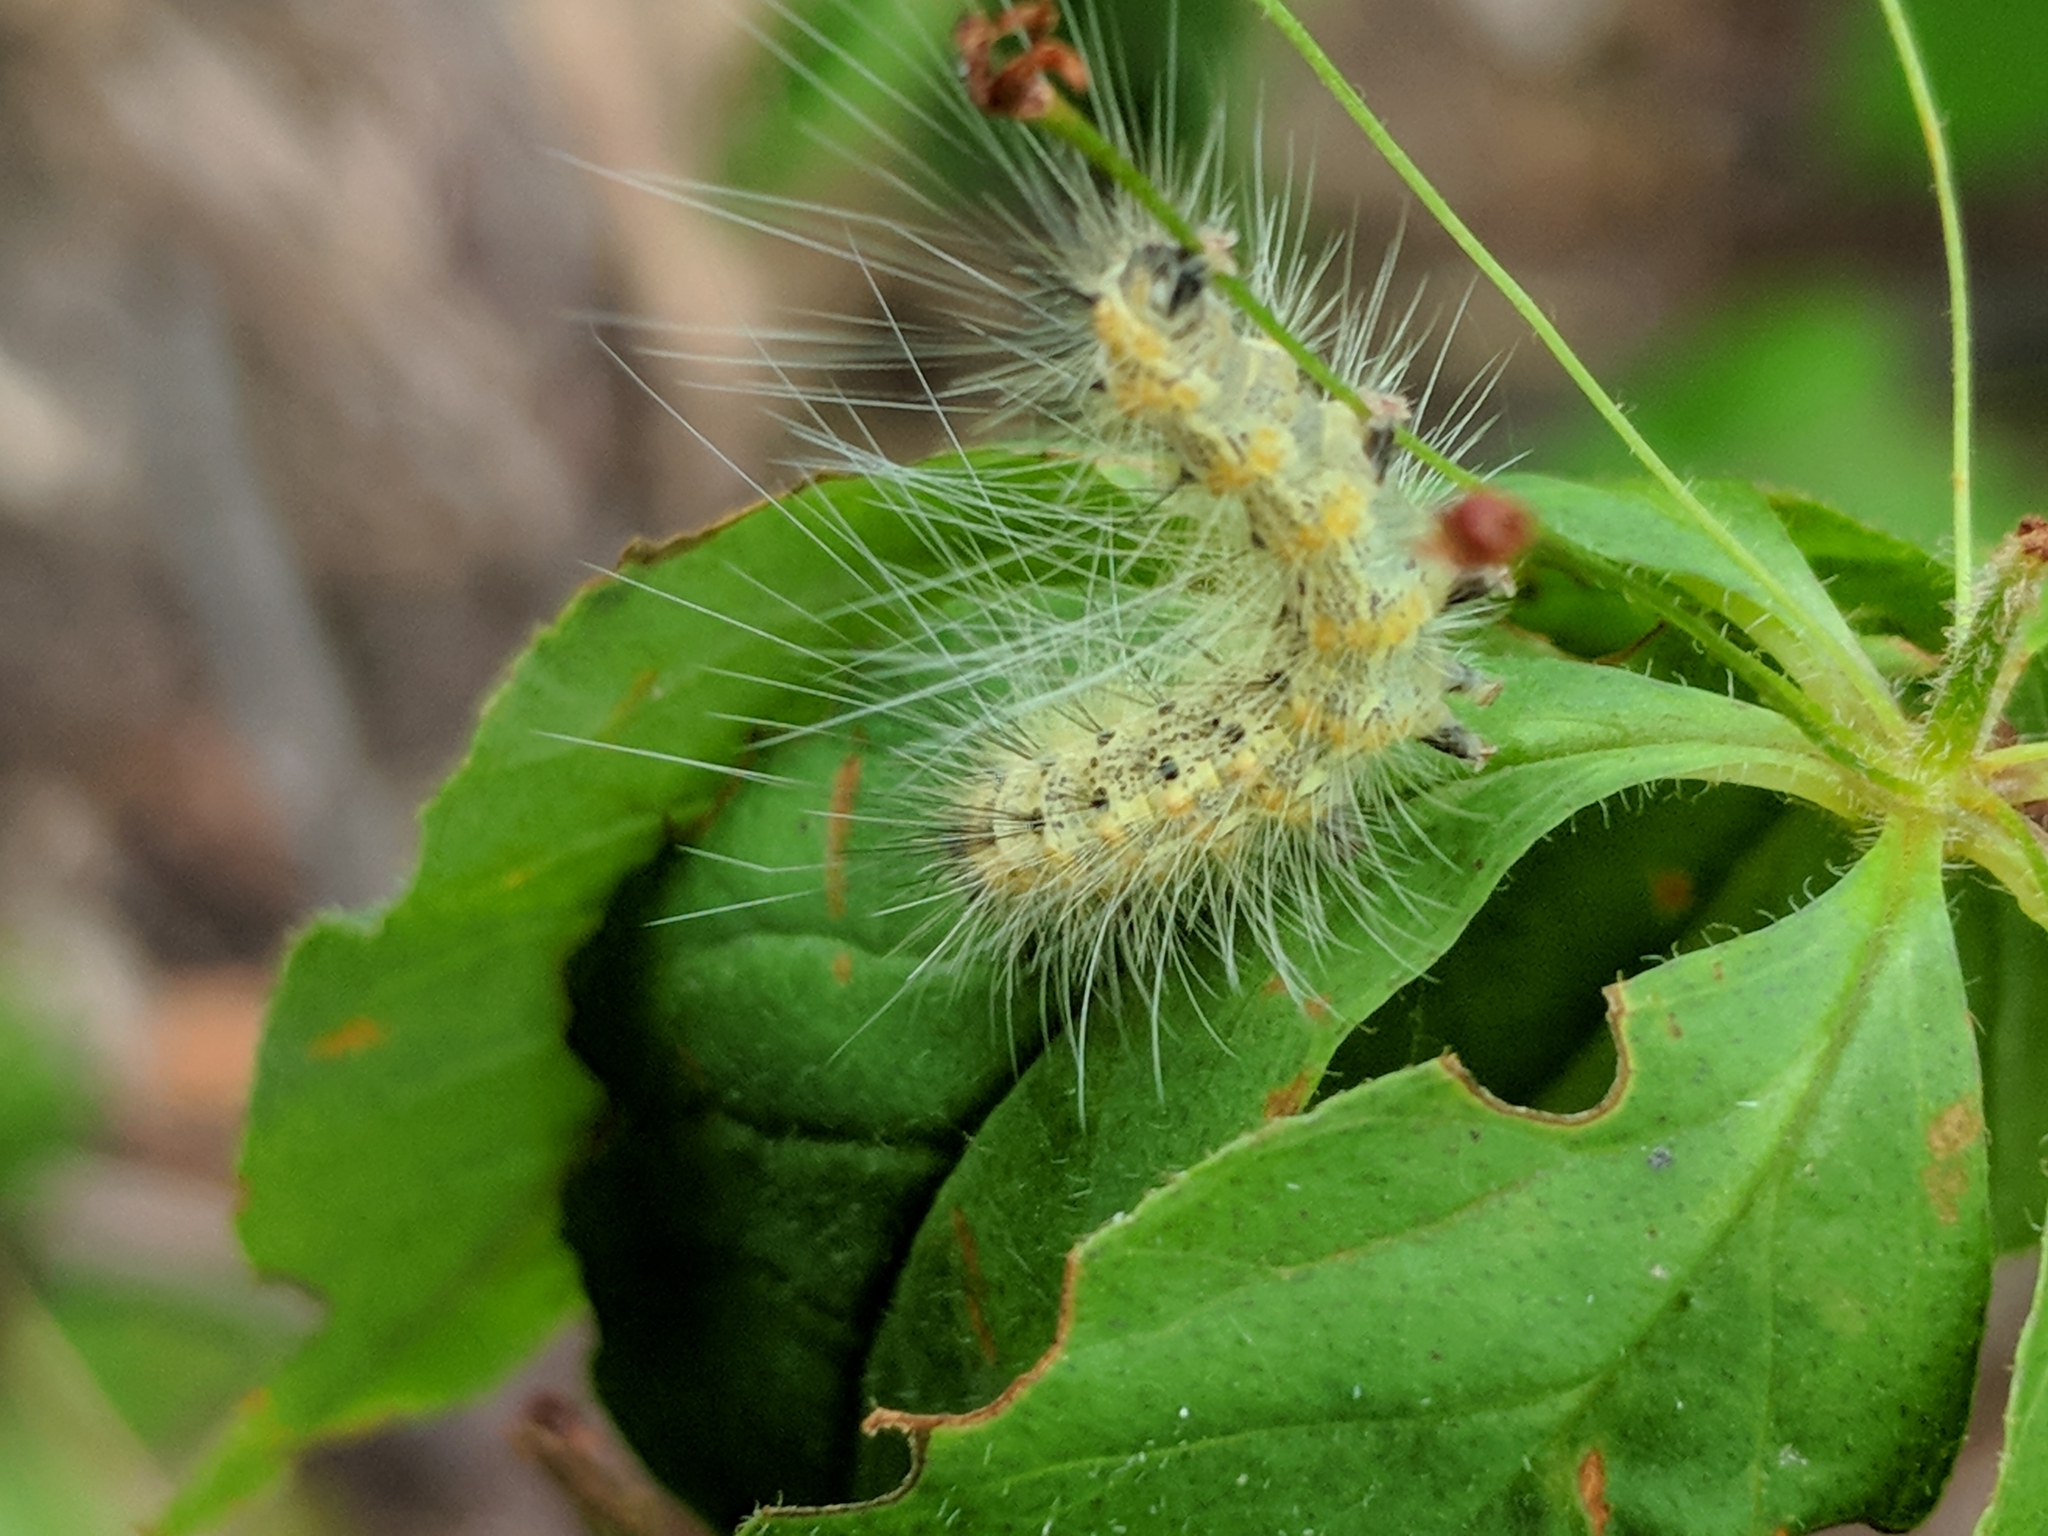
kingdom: Animalia
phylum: Arthropoda
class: Insecta
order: Lepidoptera
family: Erebidae
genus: Hyphantria
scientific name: Hyphantria cunea
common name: American white moth
